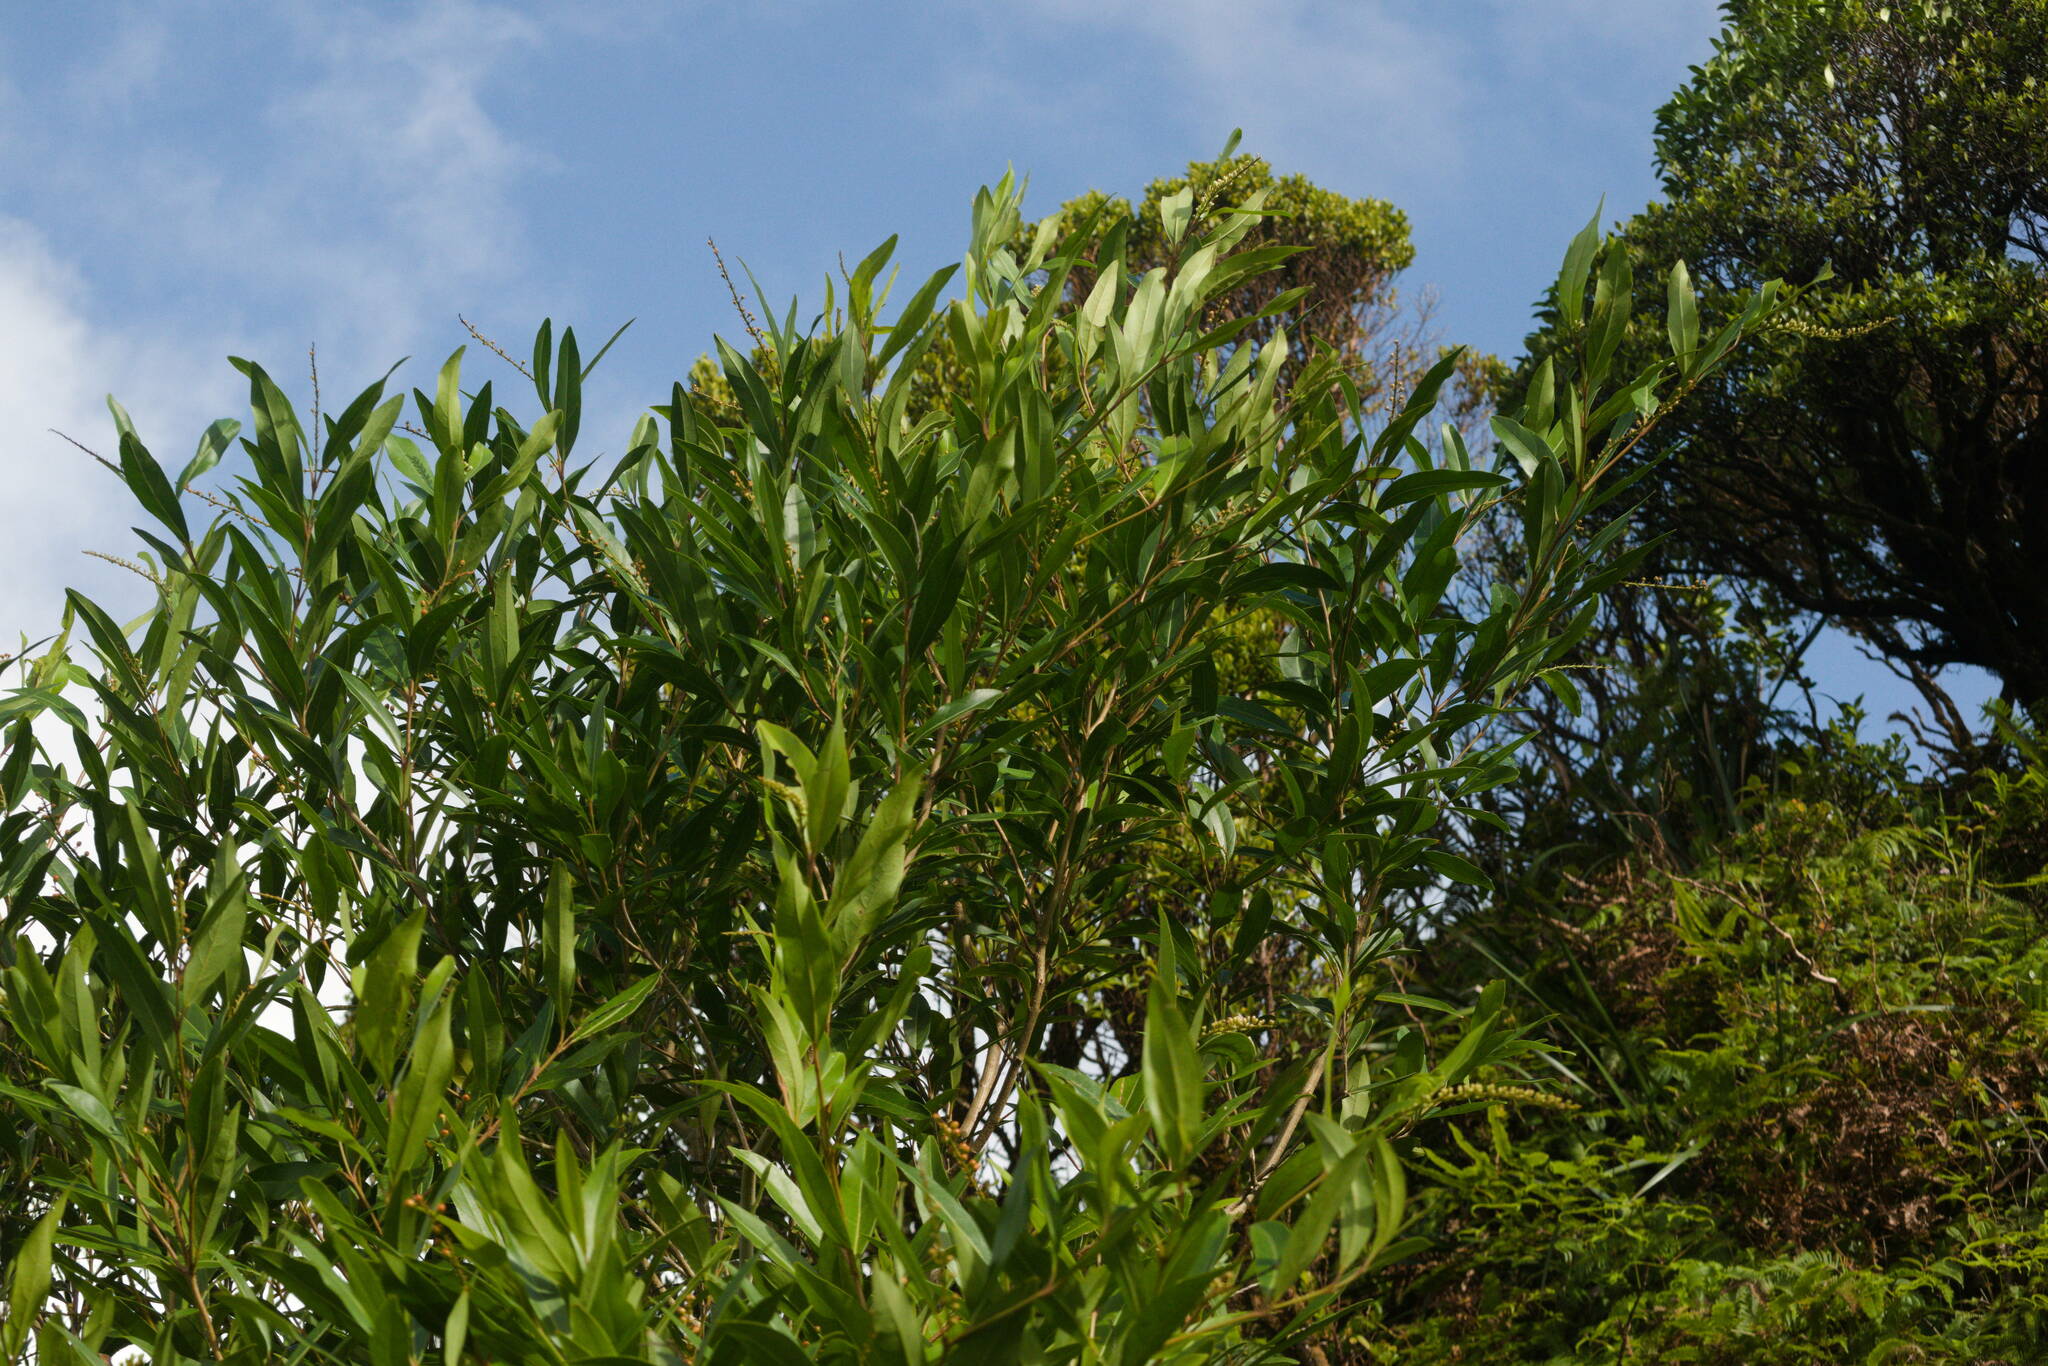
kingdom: Plantae
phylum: Tracheophyta
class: Magnoliopsida
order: Lamiales
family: Verbenaceae
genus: Citharexylum
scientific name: Citharexylum caudatum
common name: Fiddlewood
